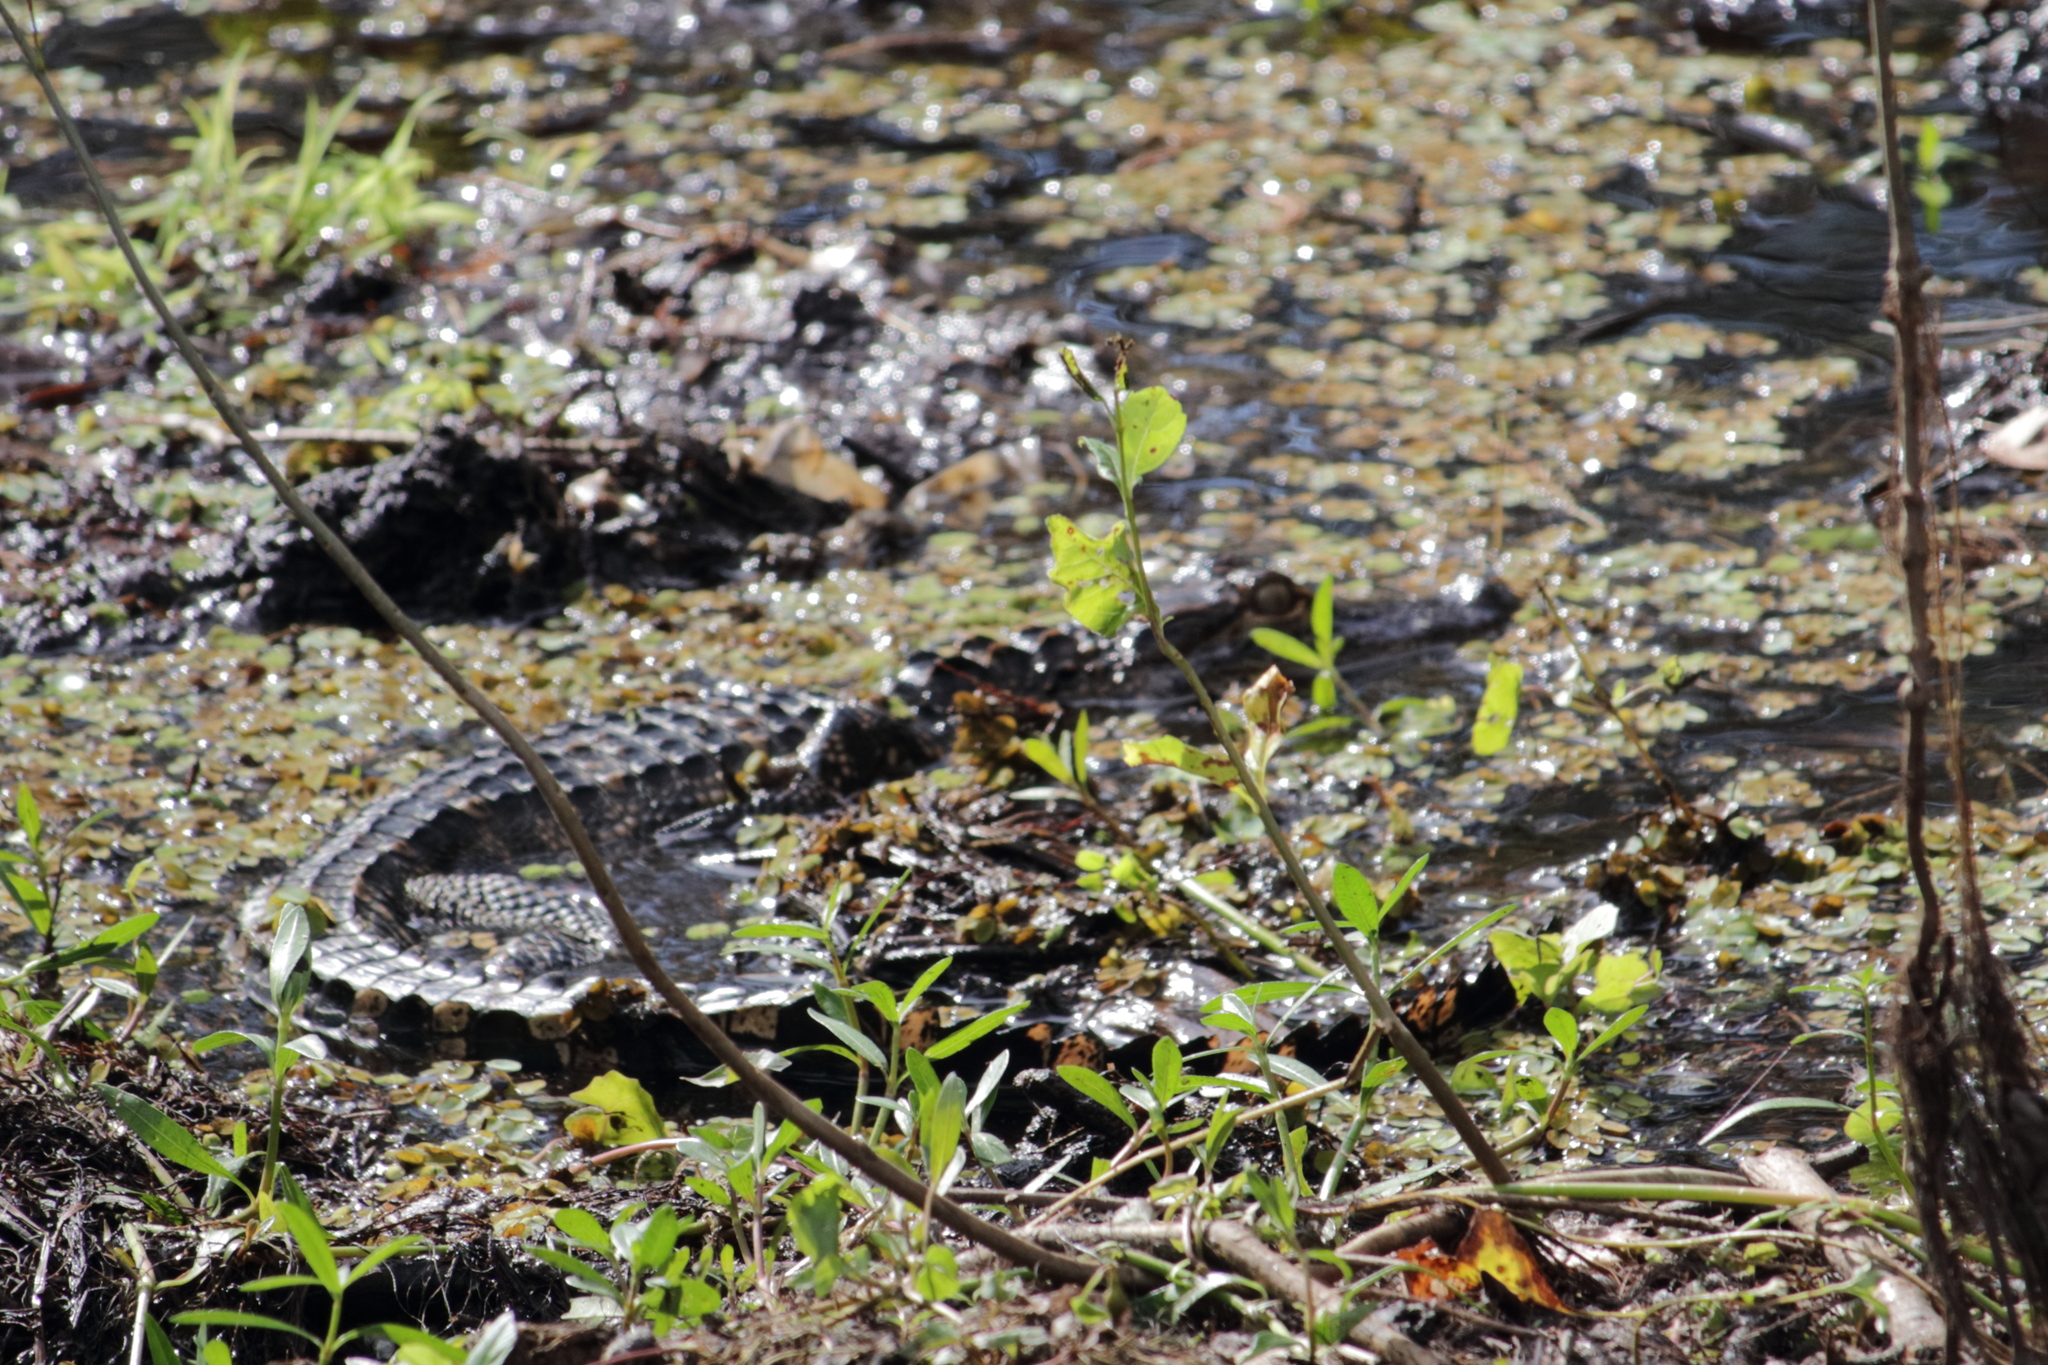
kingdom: Animalia
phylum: Chordata
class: Crocodylia
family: Alligatoridae
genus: Alligator
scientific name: Alligator mississippiensis
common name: American alligator
